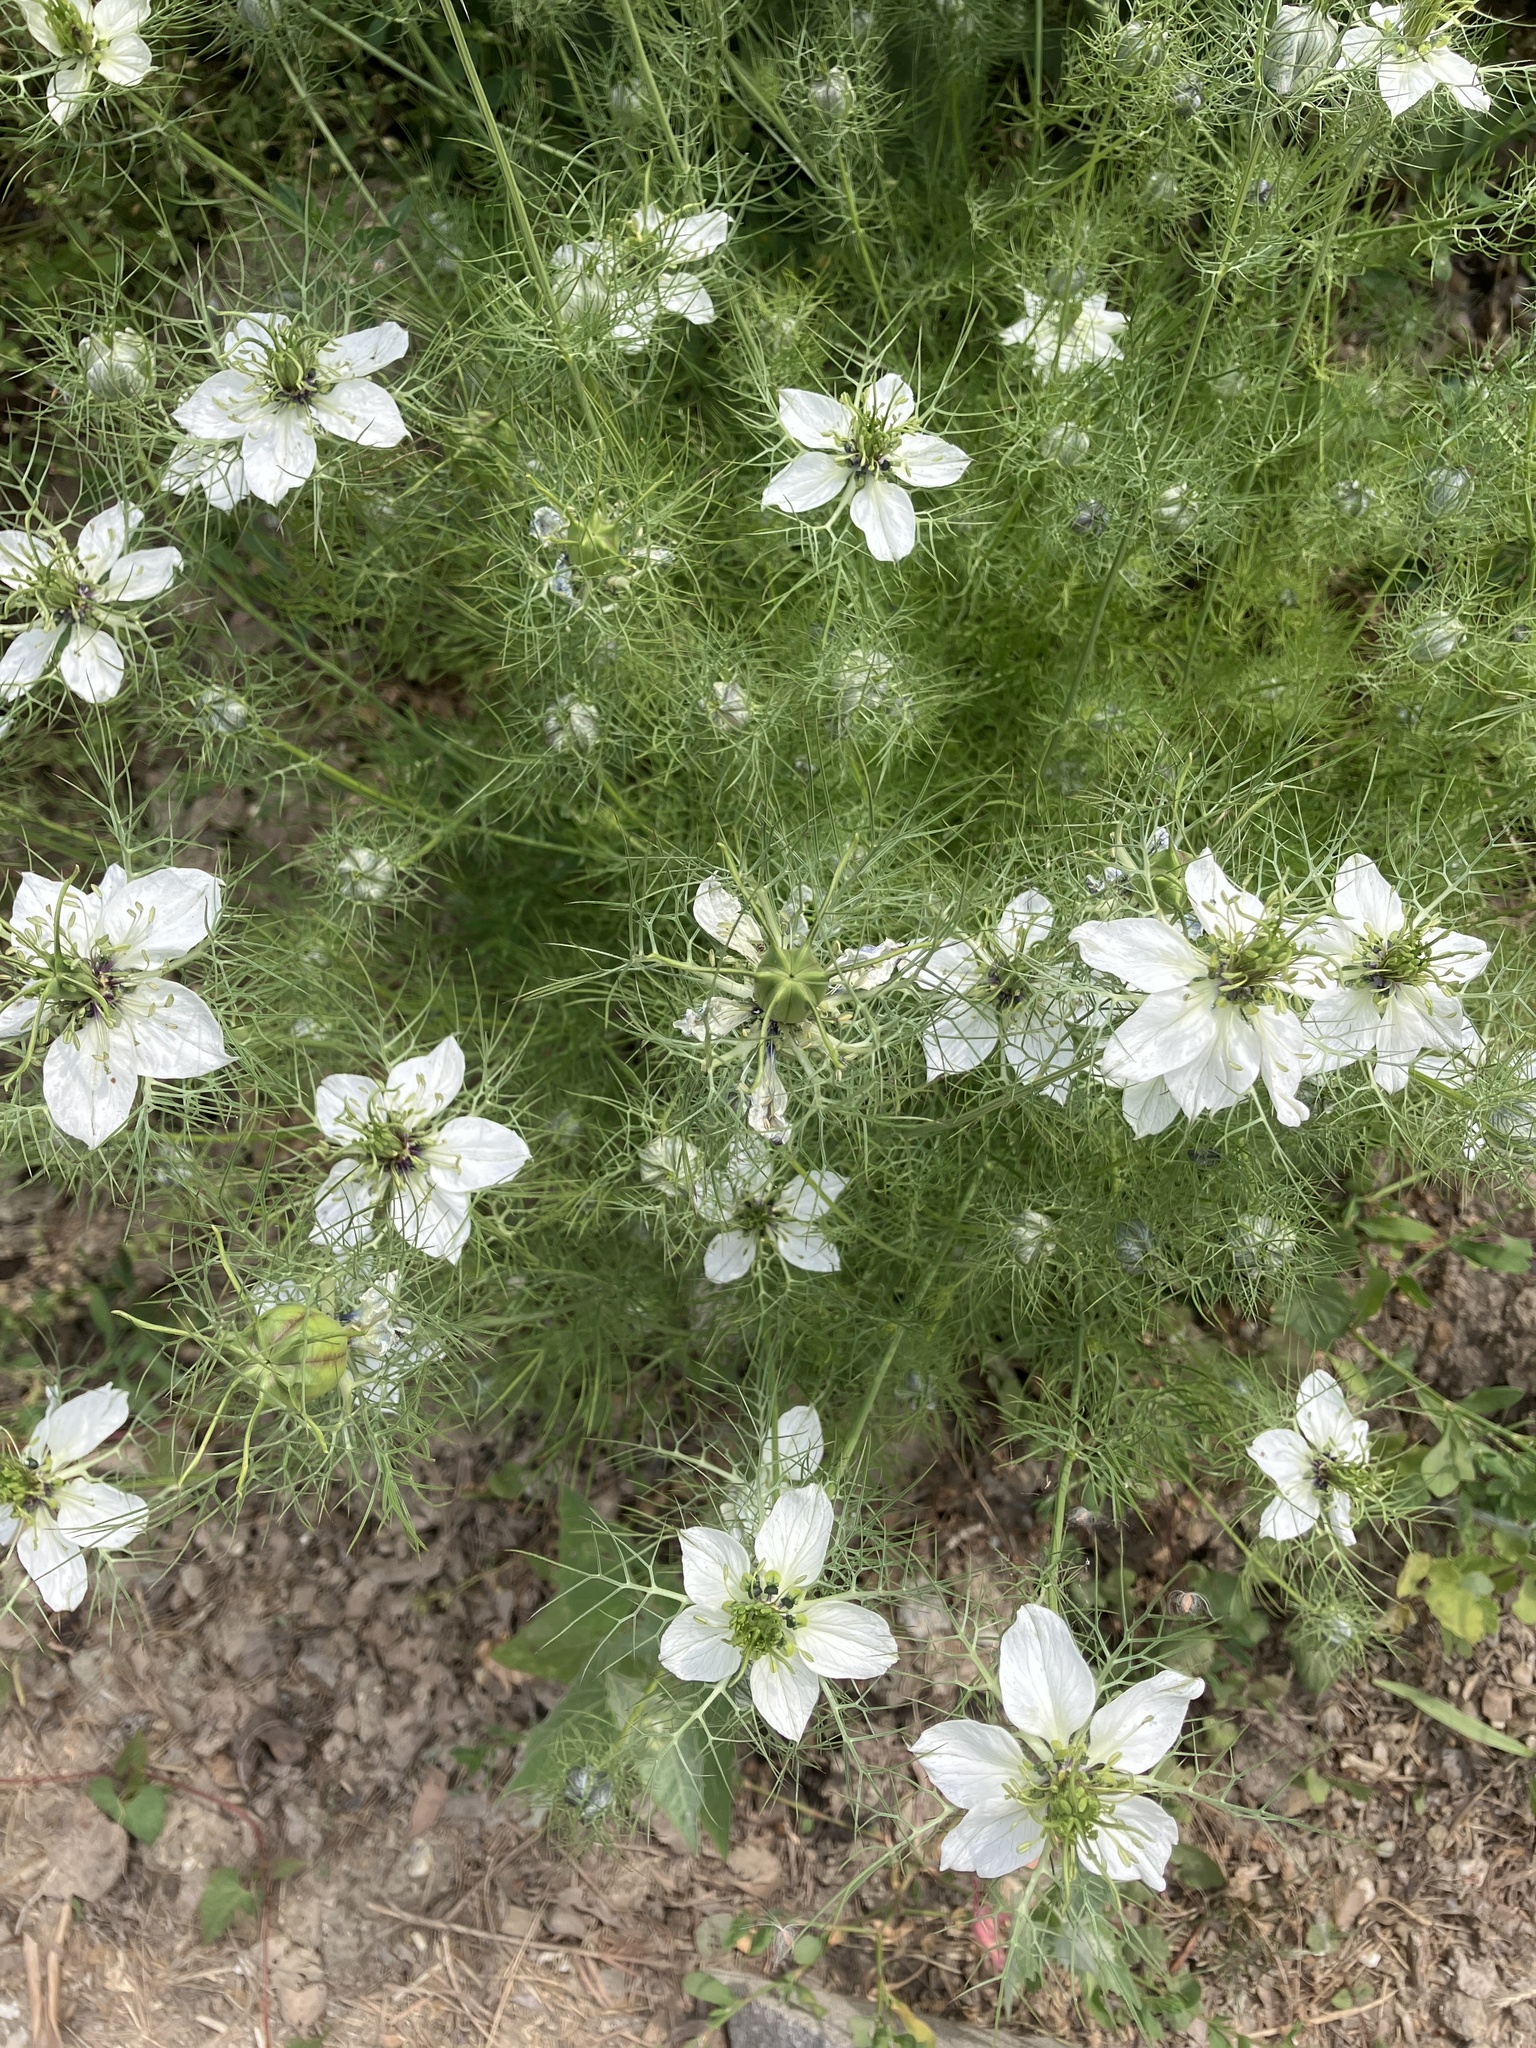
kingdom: Plantae
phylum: Tracheophyta
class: Magnoliopsida
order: Ranunculales
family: Ranunculaceae
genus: Nigella
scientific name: Nigella damascena
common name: Love-in-a-mist
